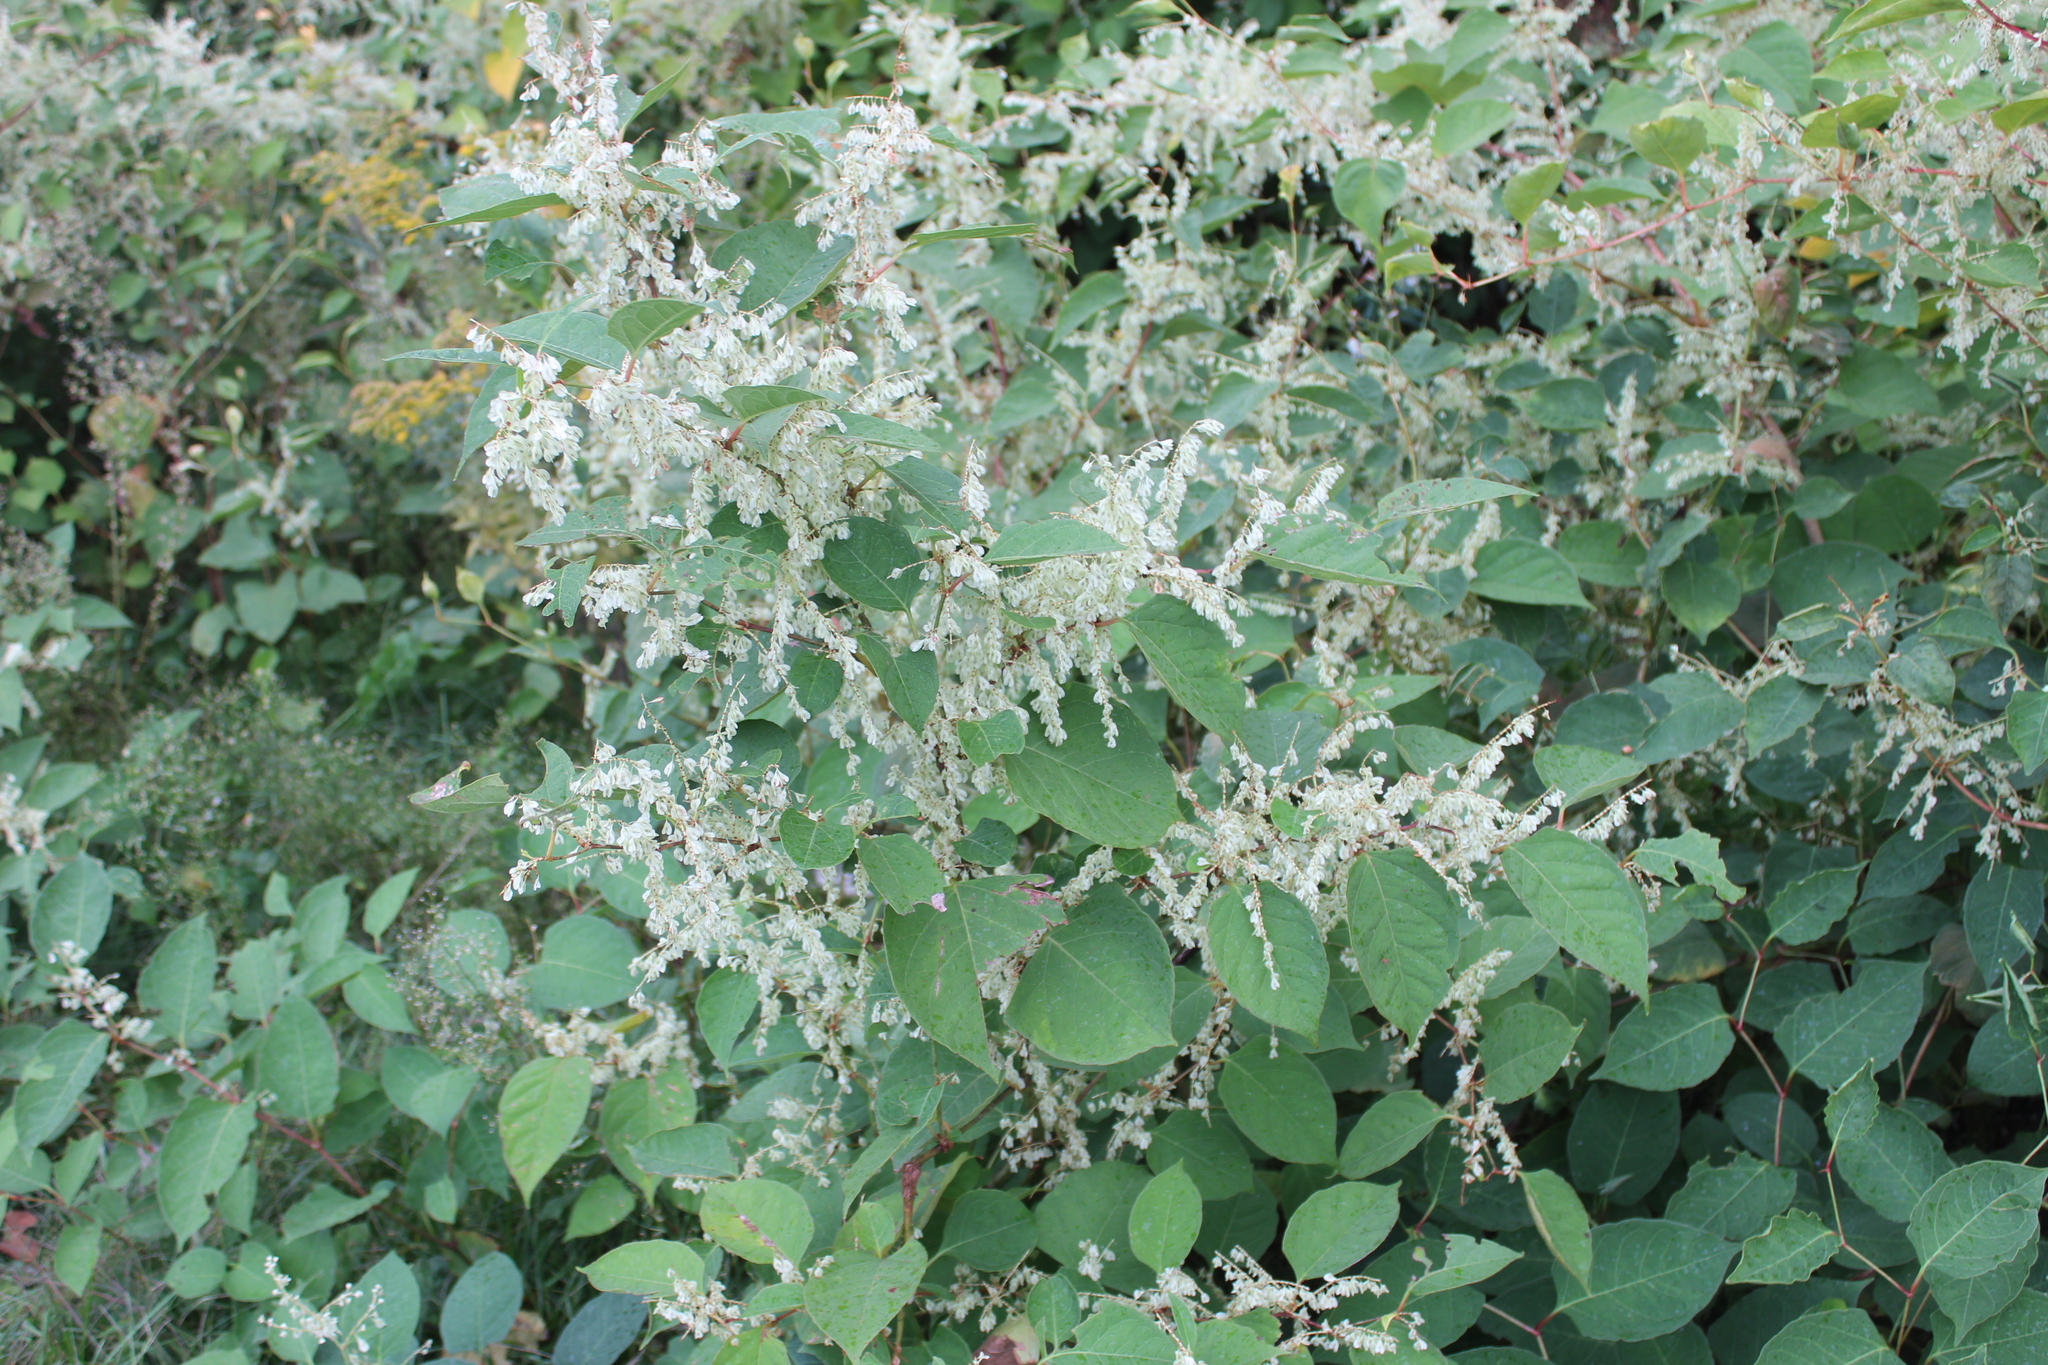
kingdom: Plantae
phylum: Tracheophyta
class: Magnoliopsida
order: Caryophyllales
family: Polygonaceae
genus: Reynoutria
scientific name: Reynoutria japonica
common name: Japanese knotweed
